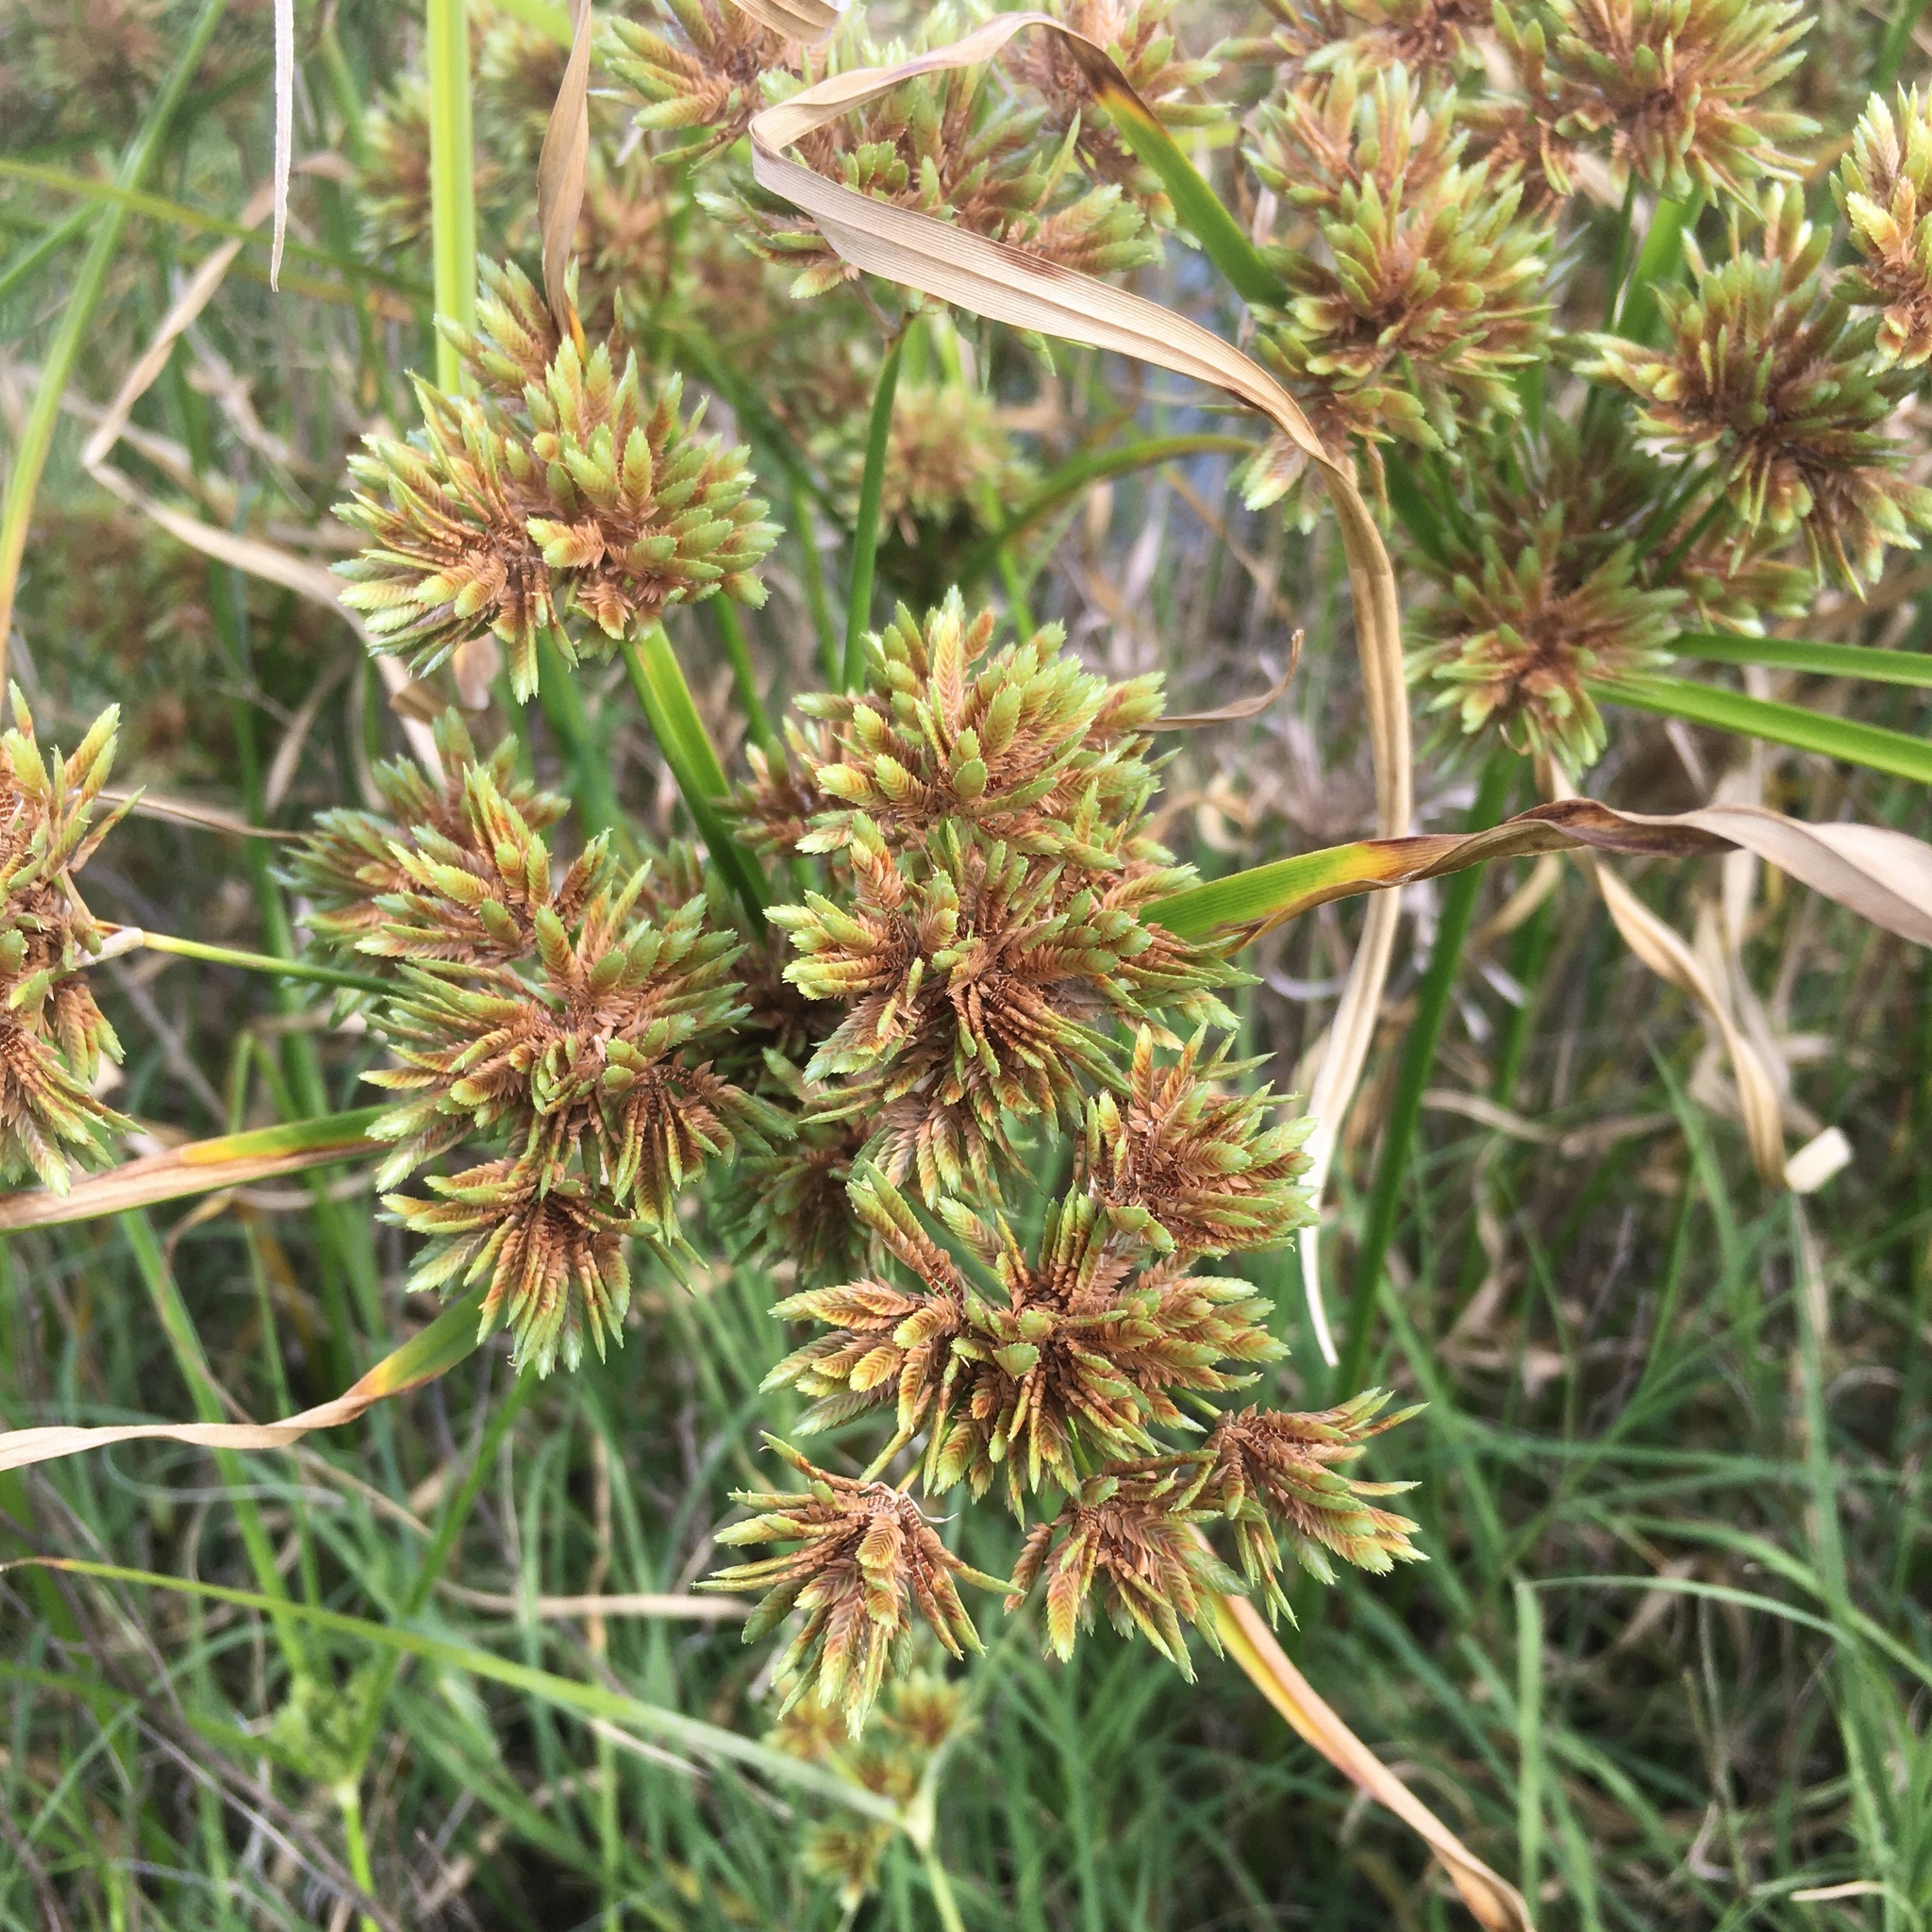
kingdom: Plantae
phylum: Tracheophyta
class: Liliopsida
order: Poales
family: Cyperaceae
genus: Cyperus
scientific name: Cyperus eragrostis
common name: Tall flatsedge
